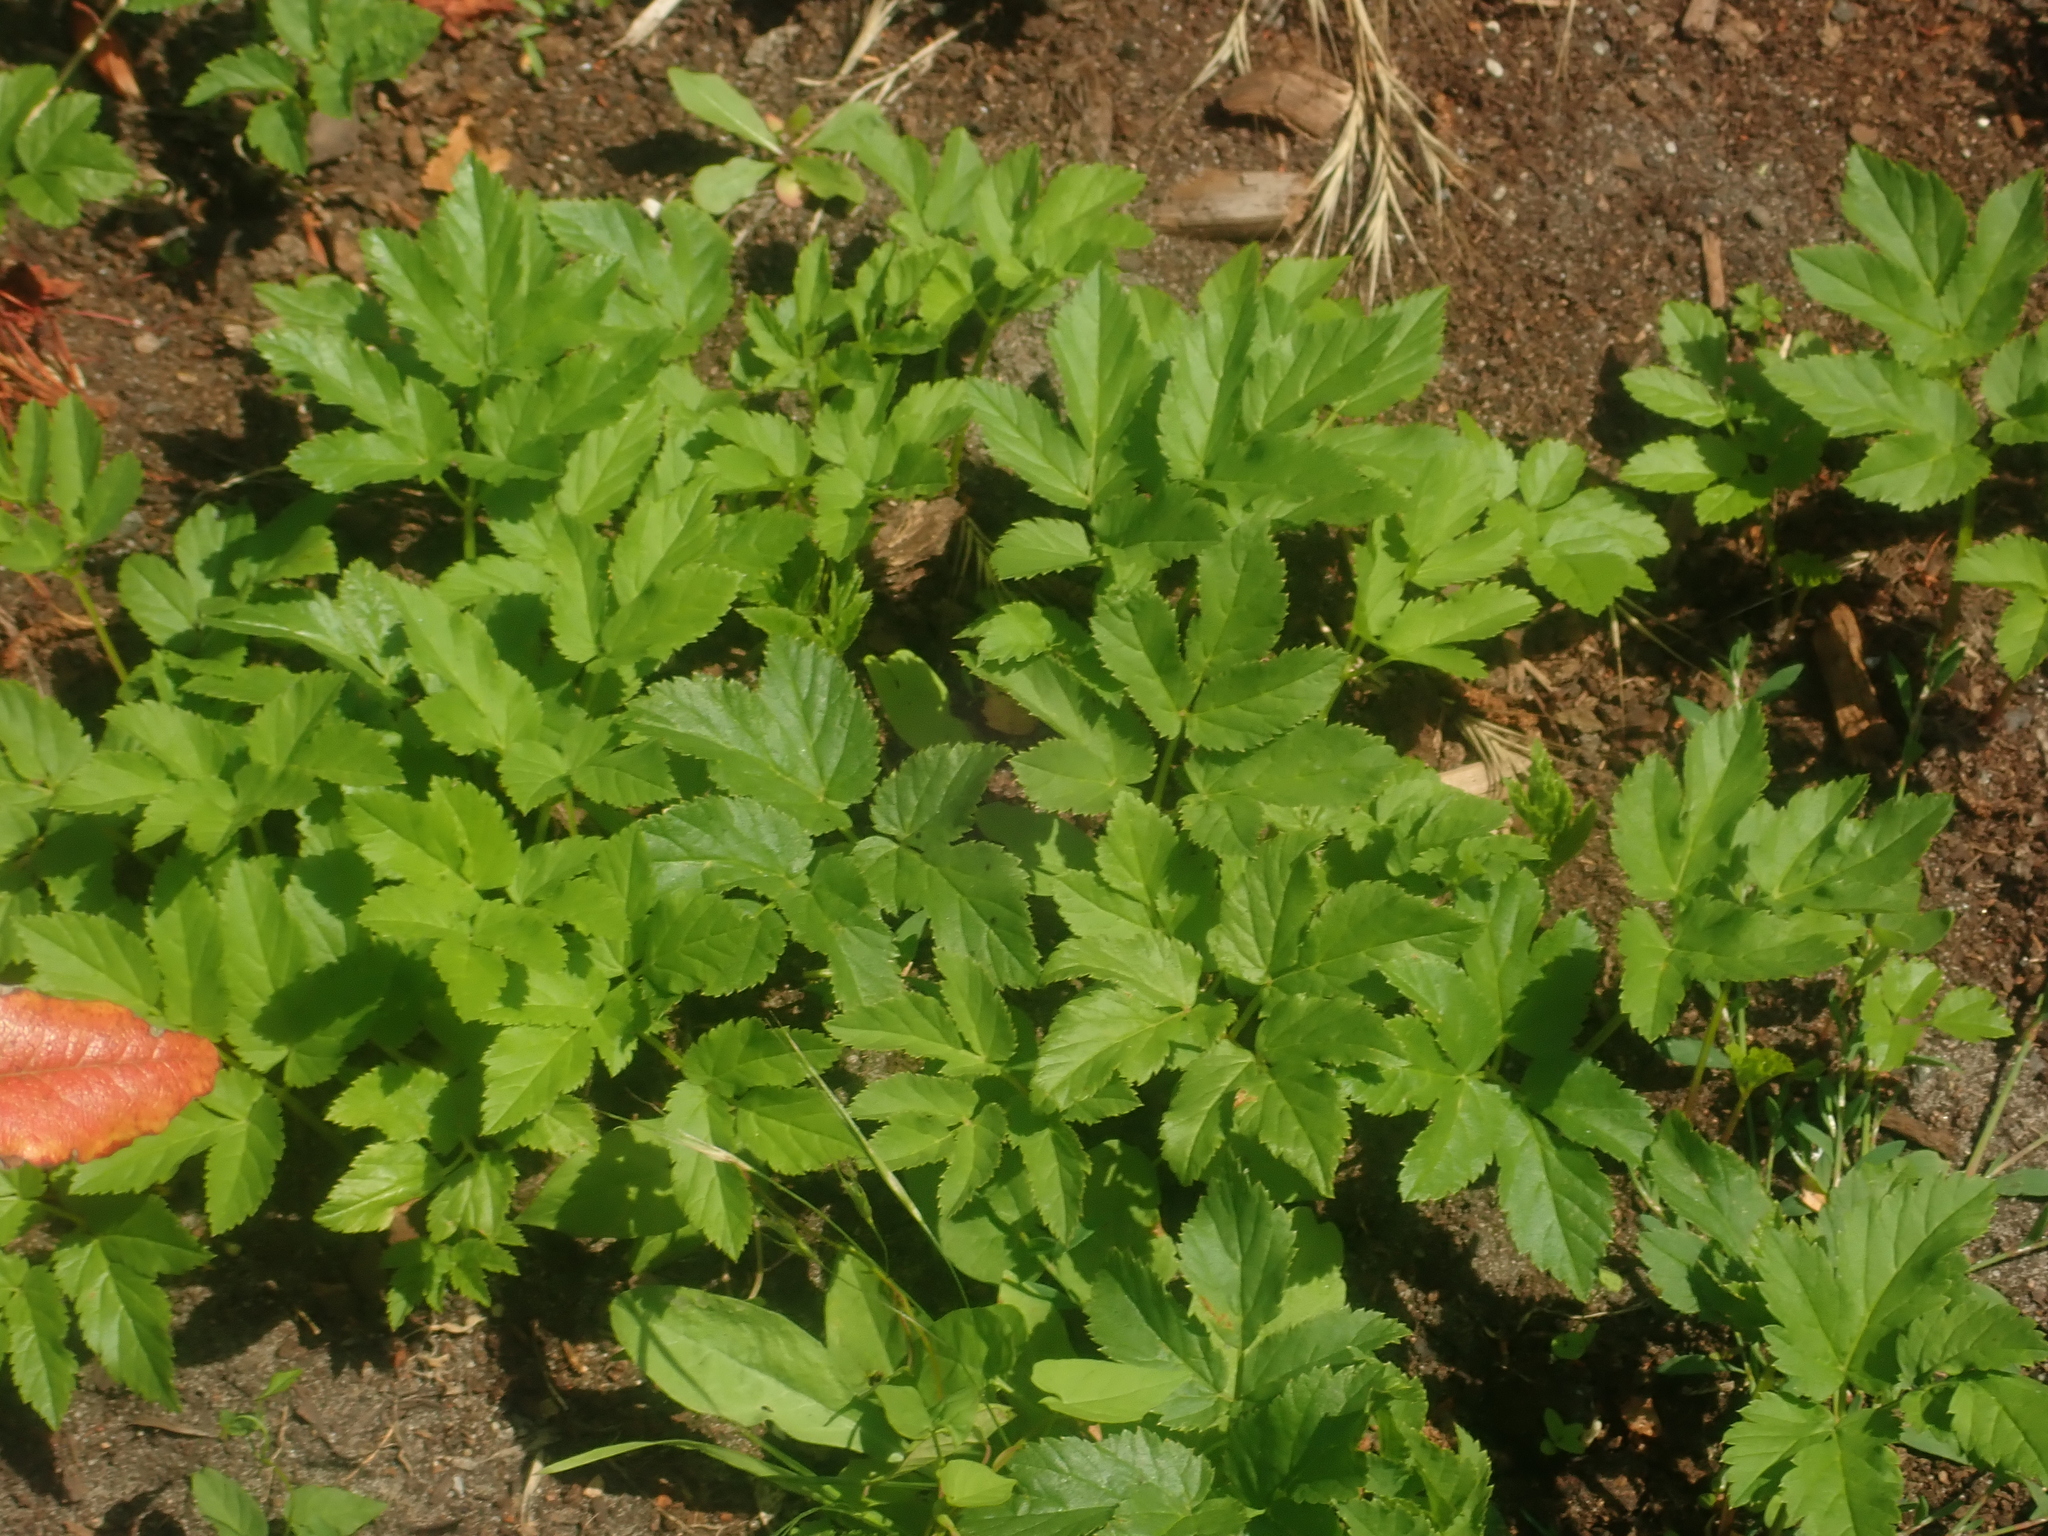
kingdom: Plantae
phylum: Tracheophyta
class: Magnoliopsida
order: Apiales
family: Apiaceae
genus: Aegopodium
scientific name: Aegopodium podagraria
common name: Ground-elder
